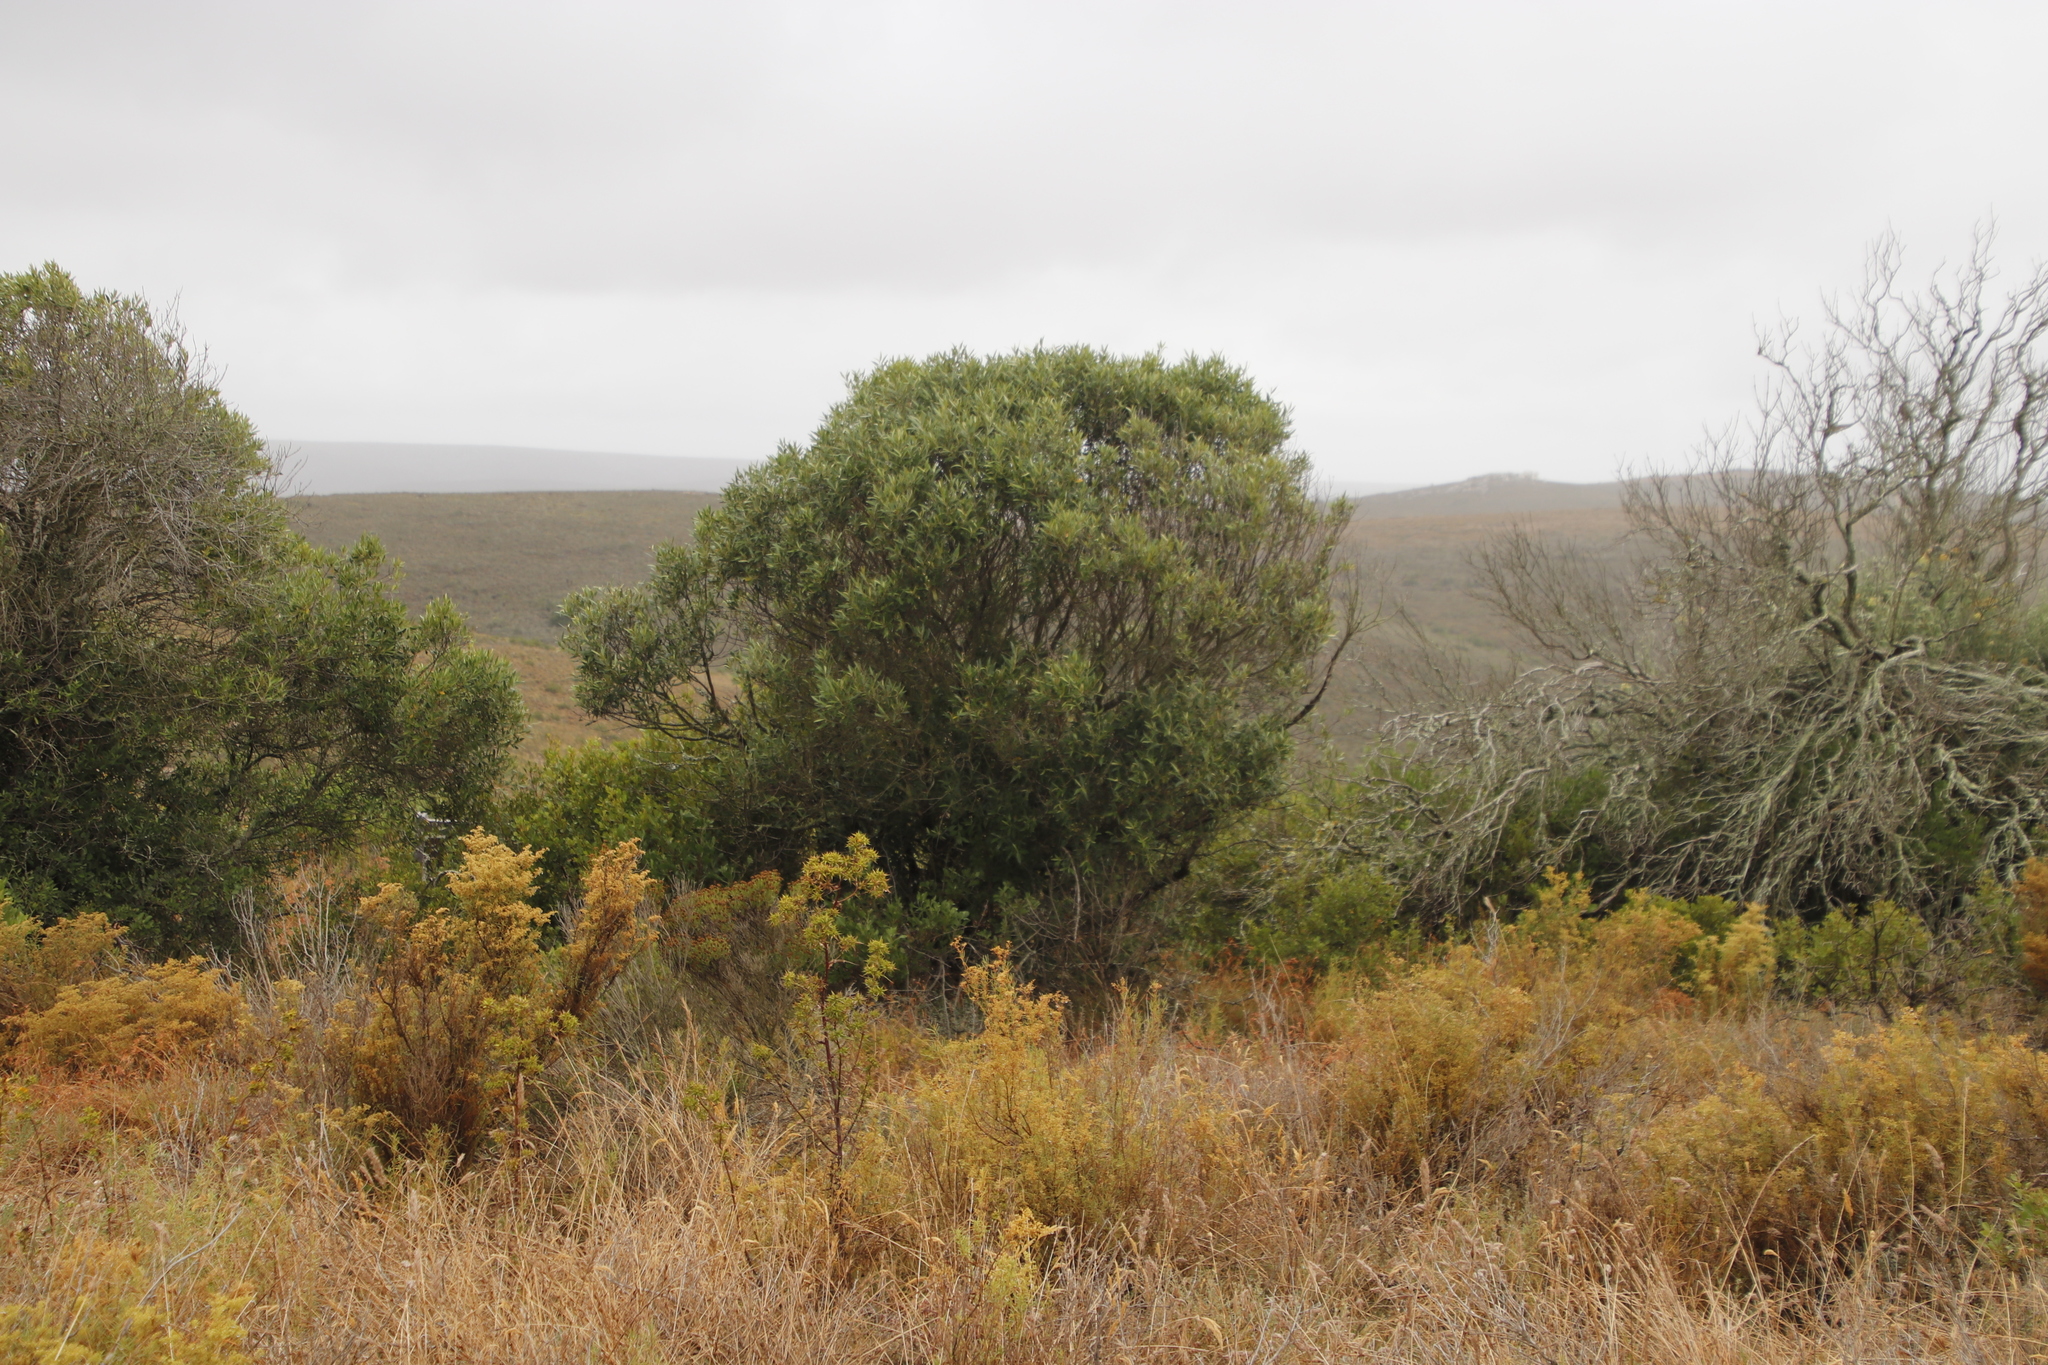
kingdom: Plantae
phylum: Tracheophyta
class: Magnoliopsida
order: Lamiales
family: Oleaceae
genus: Olea
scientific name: Olea europaea
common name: Olive
